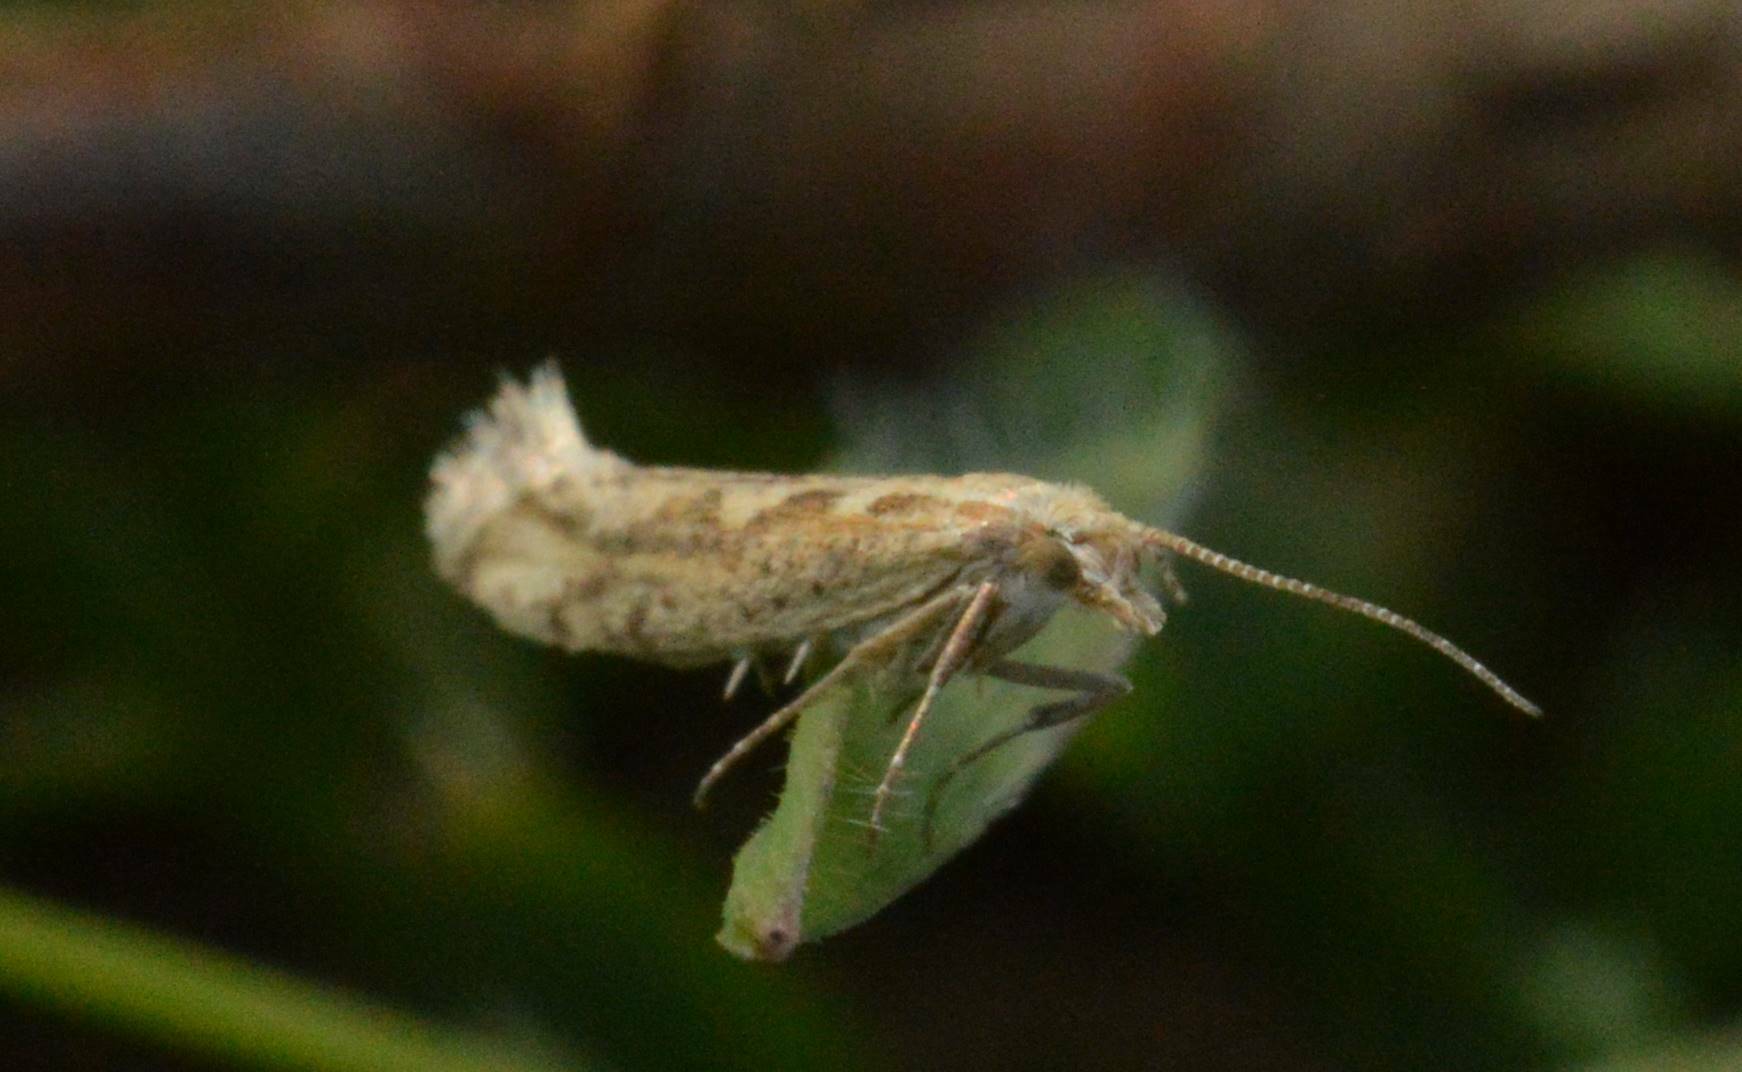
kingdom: Animalia
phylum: Arthropoda
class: Insecta
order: Lepidoptera
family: Plutellidae
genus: Plutella
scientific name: Plutella xylostella
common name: Diamond-back moth
